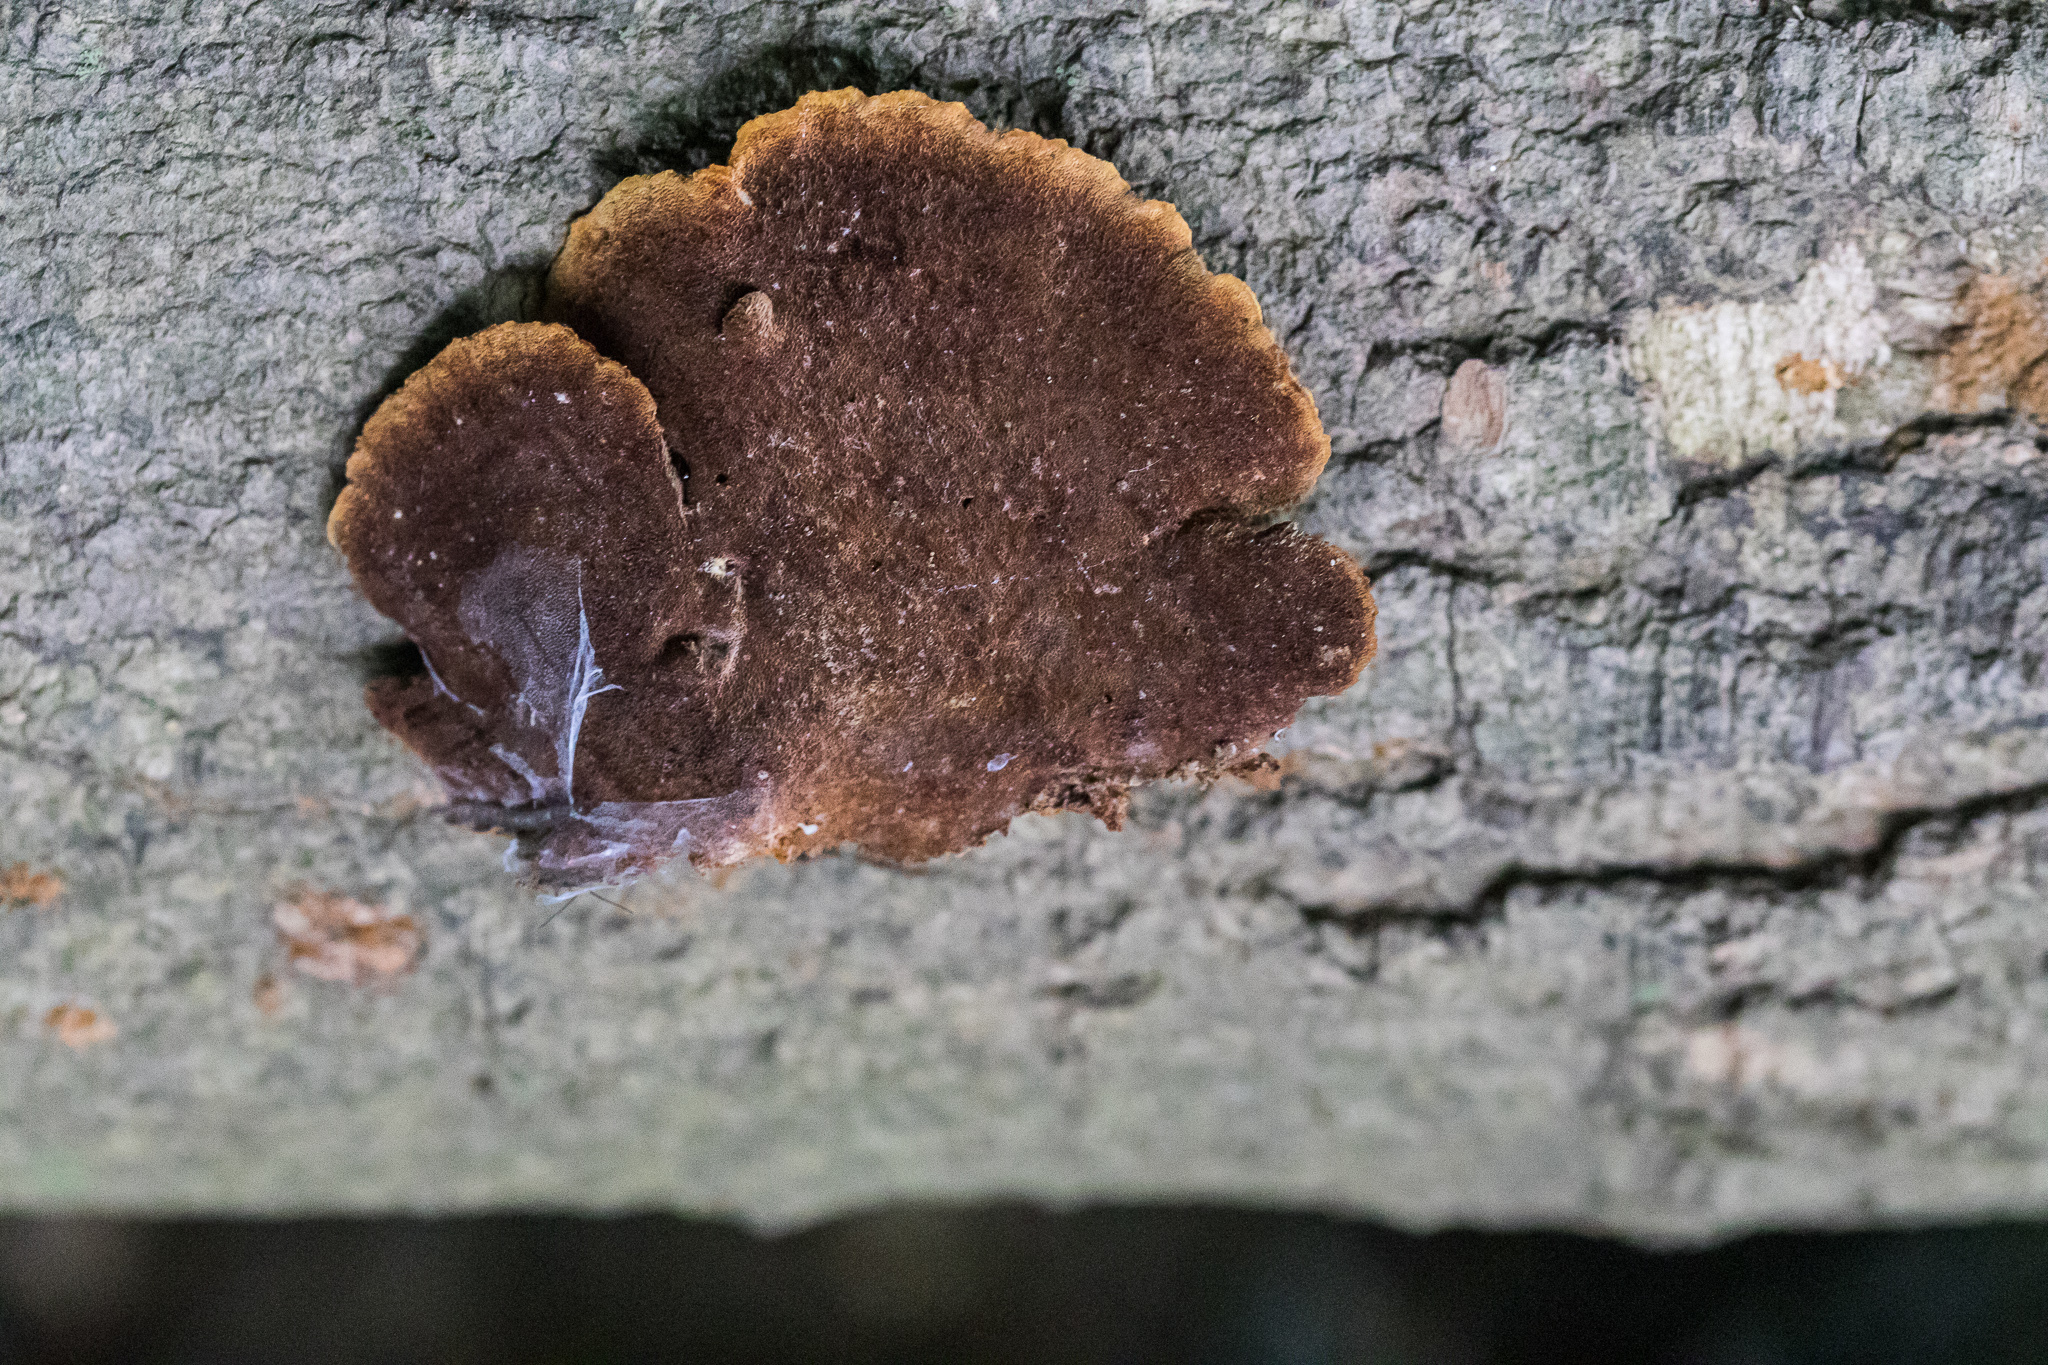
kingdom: Fungi
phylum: Basidiomycota
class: Agaricomycetes
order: Hymenochaetales
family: Hymenochaetaceae
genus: Phellinus
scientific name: Phellinus gilvus
